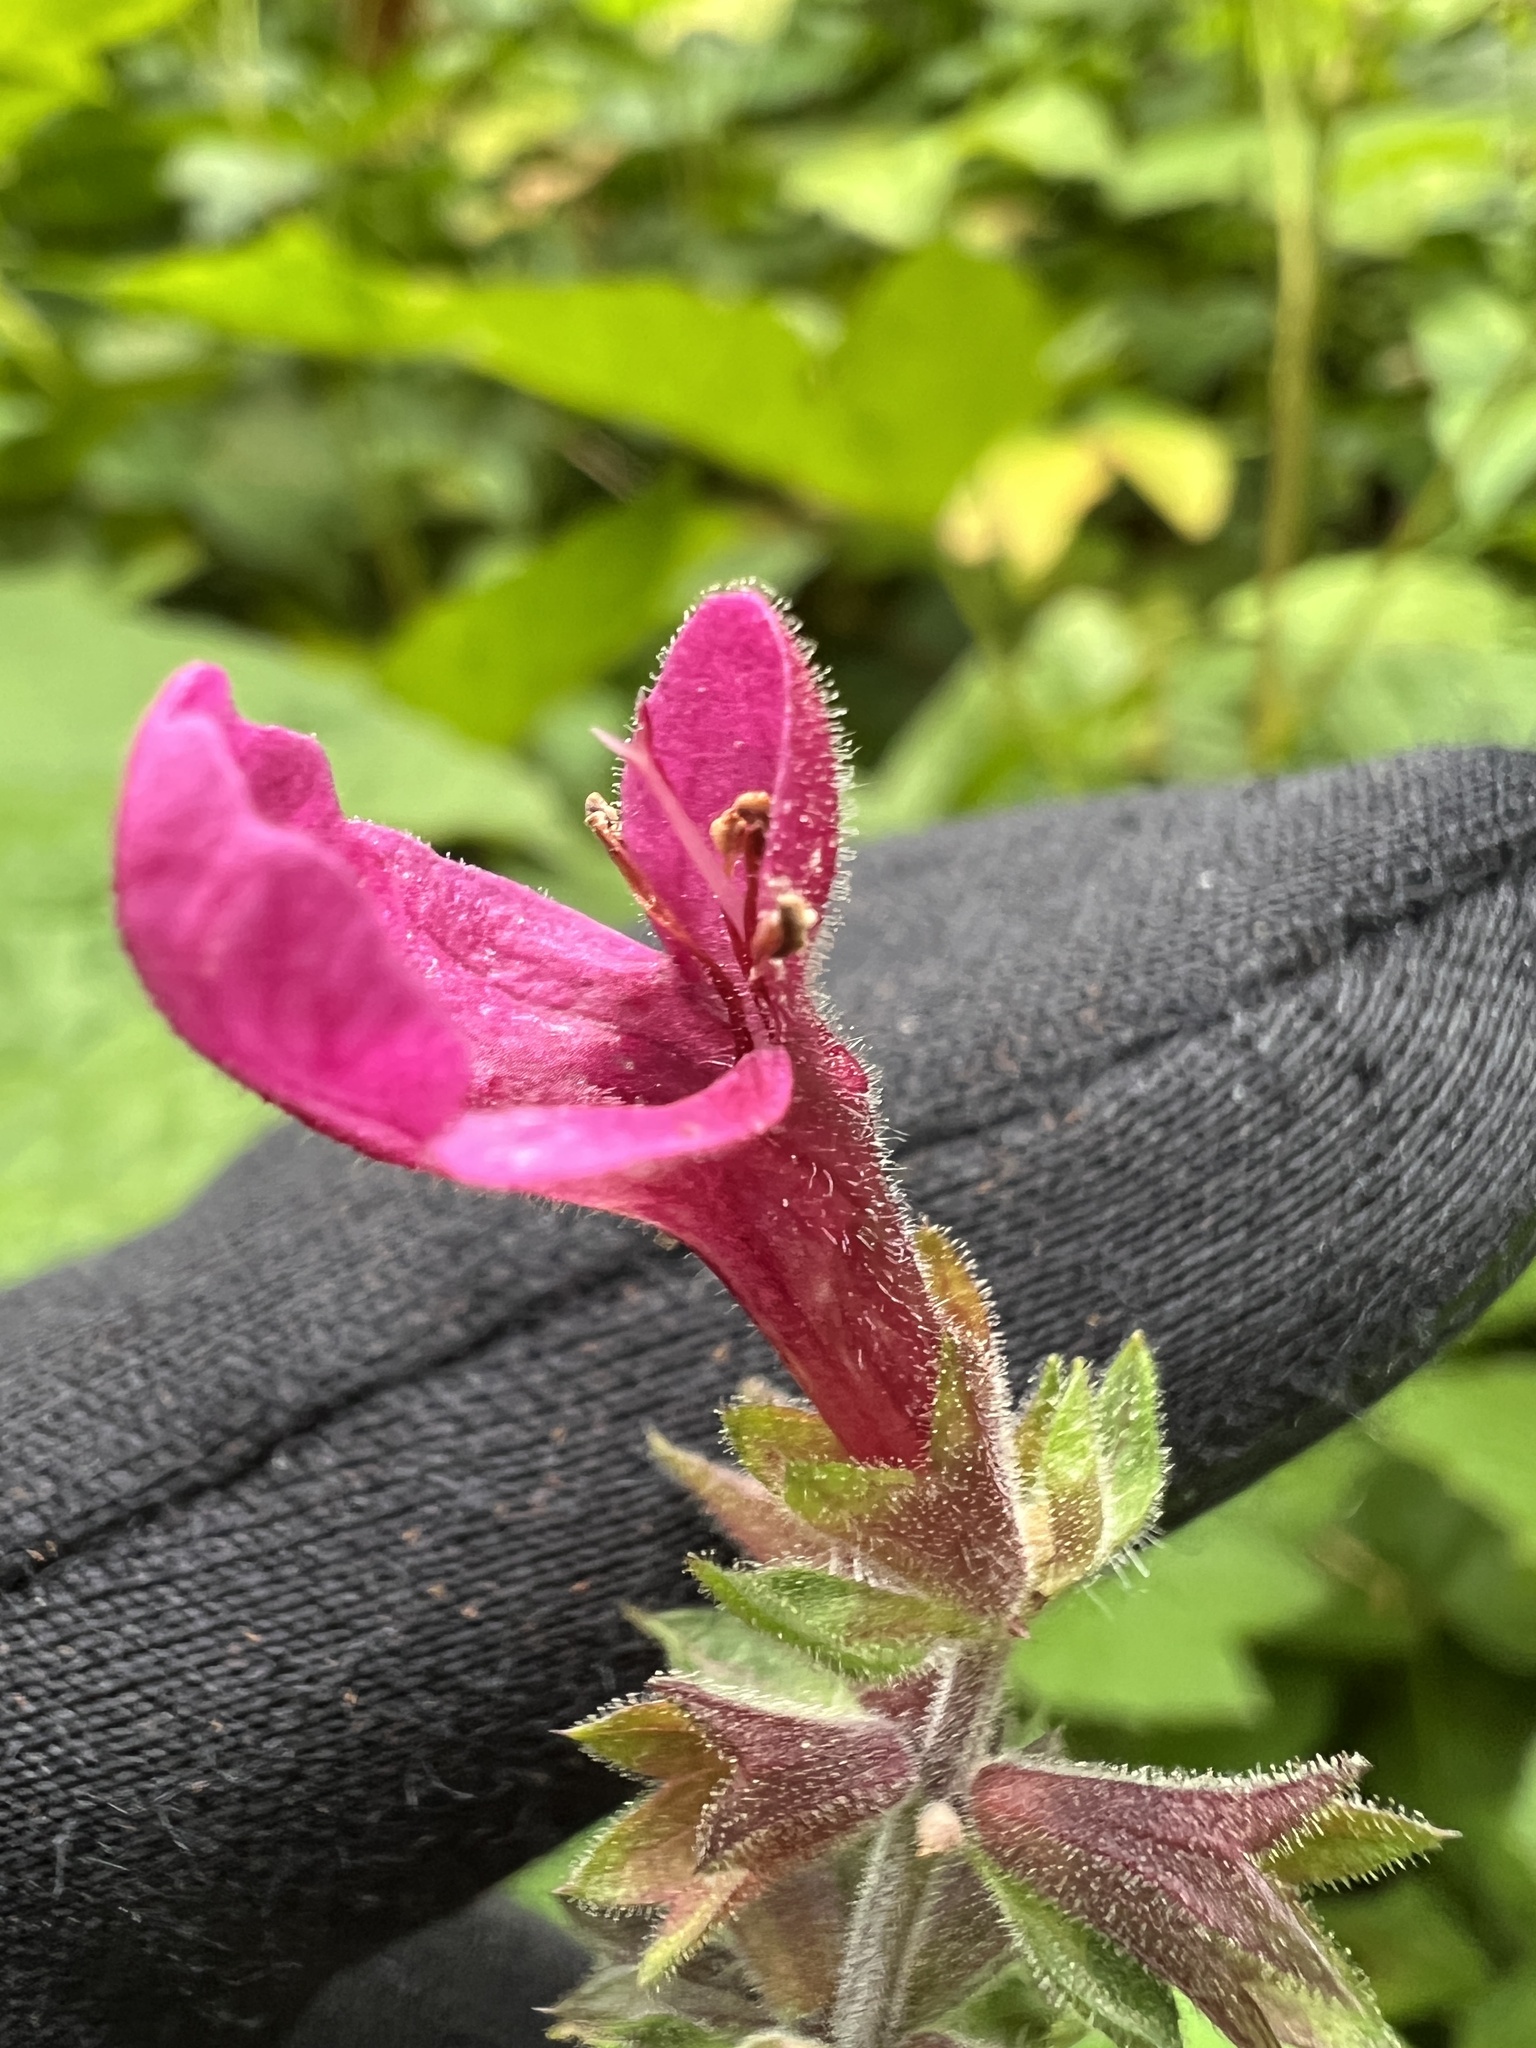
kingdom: Plantae
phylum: Tracheophyta
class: Magnoliopsida
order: Lamiales
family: Lamiaceae
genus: Stachys
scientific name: Stachys chamissonis
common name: Coastal hedge-nettle
